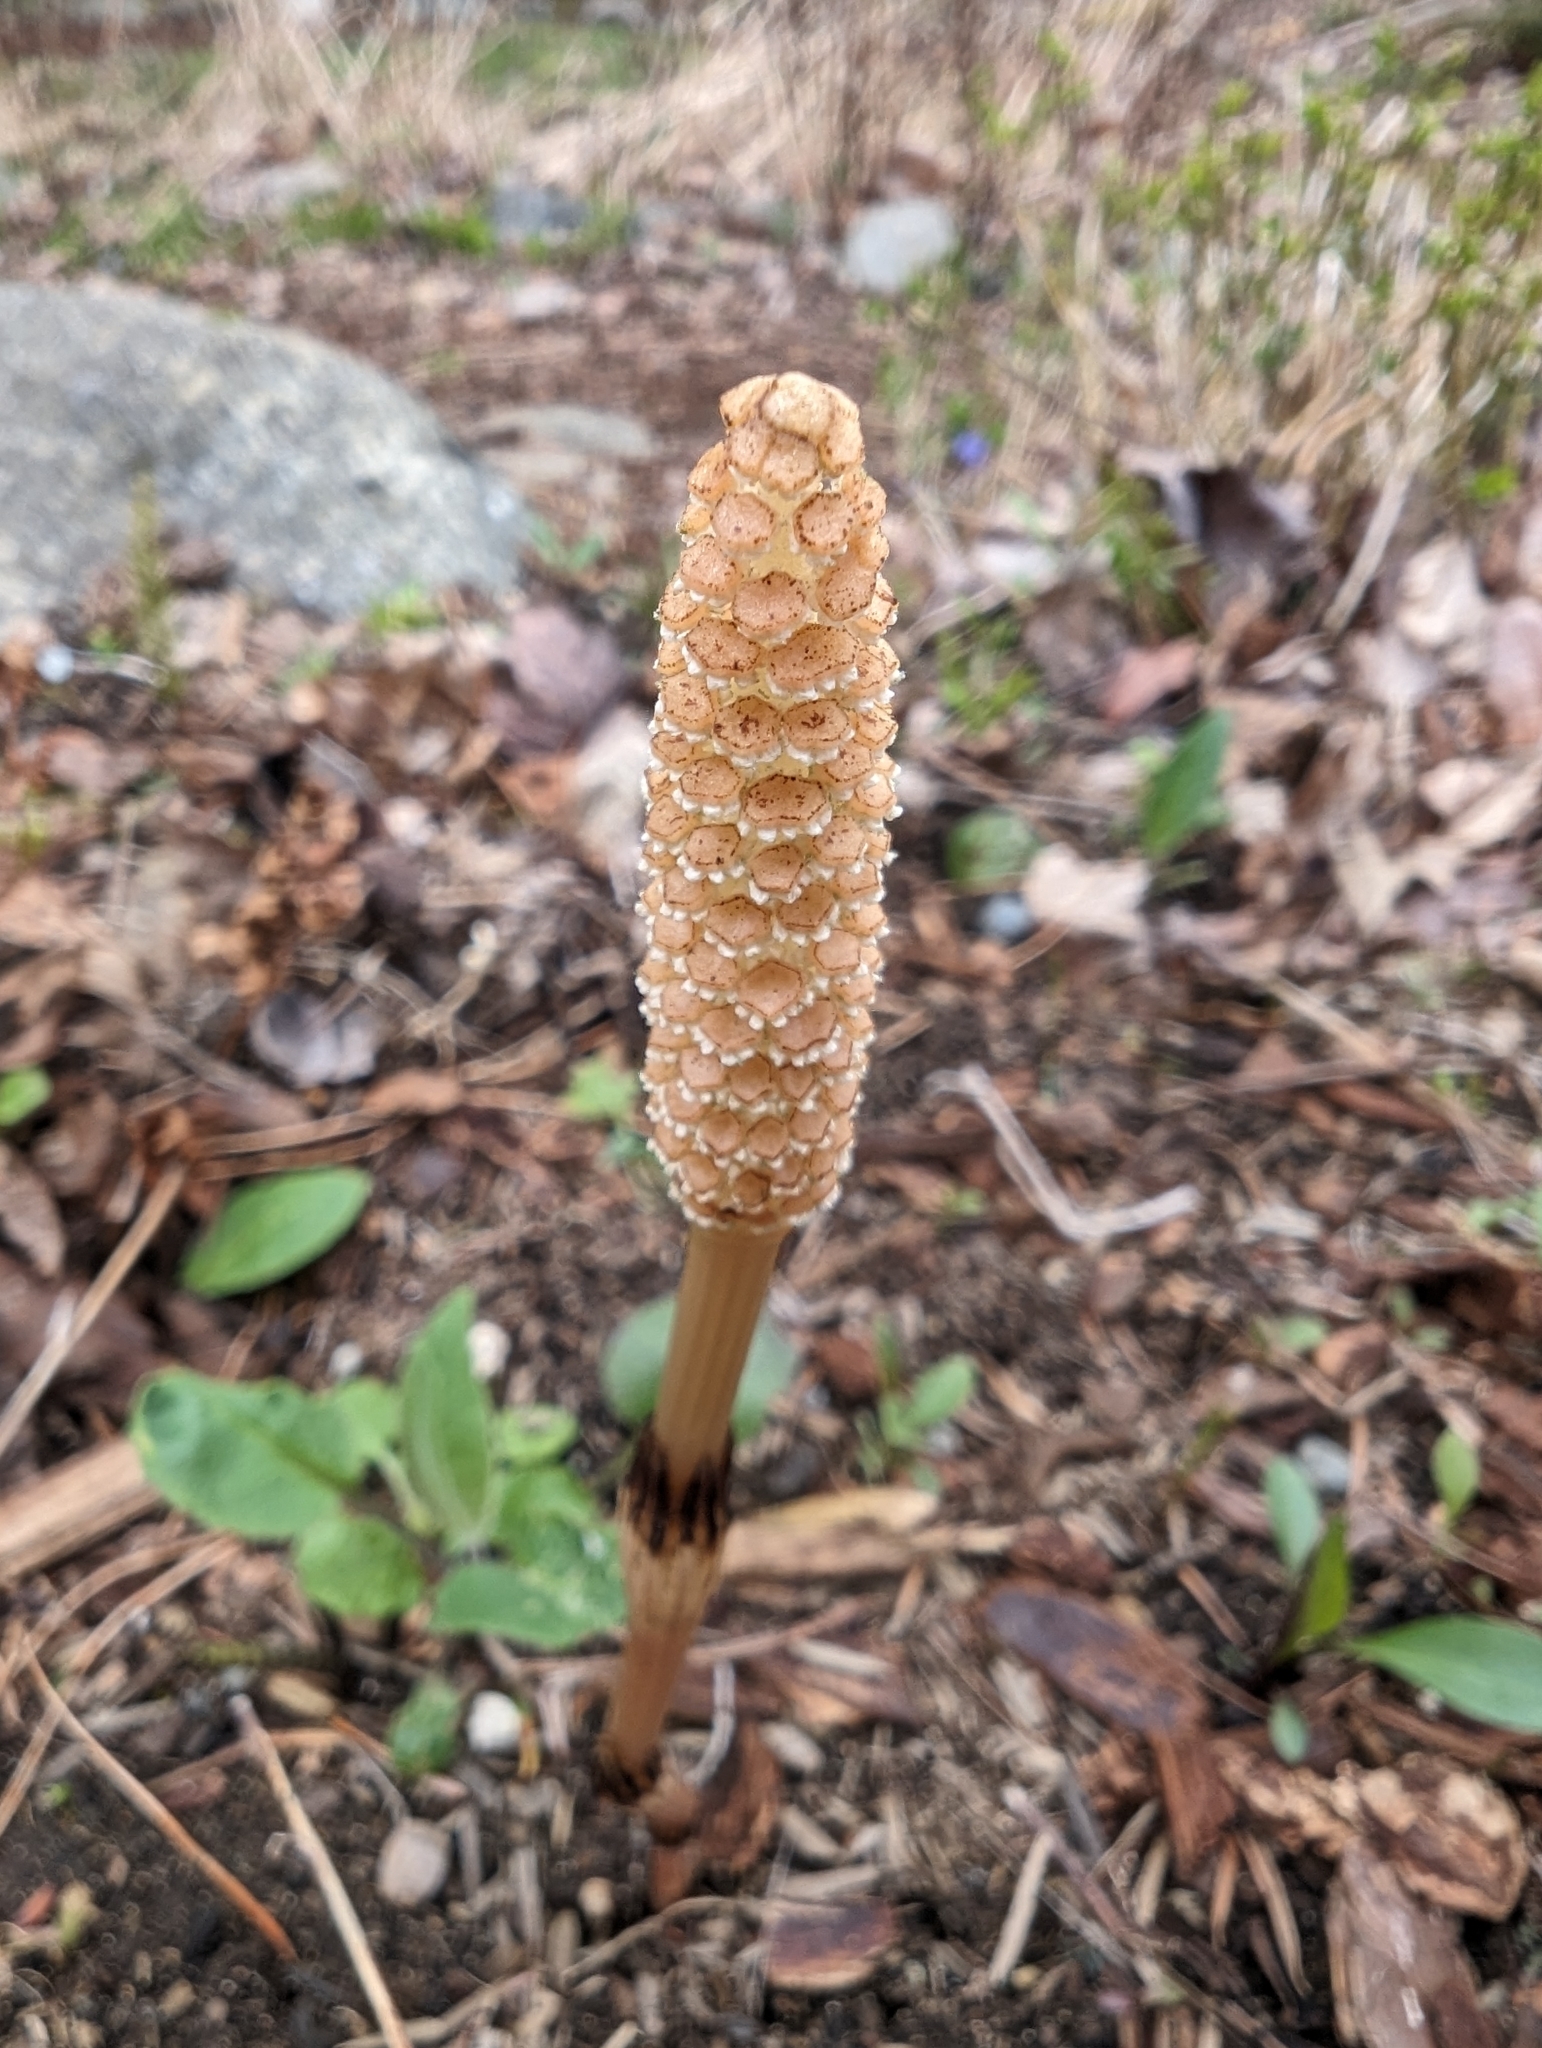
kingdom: Plantae
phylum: Tracheophyta
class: Polypodiopsida
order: Equisetales
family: Equisetaceae
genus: Equisetum
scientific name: Equisetum arvense
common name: Field horsetail
